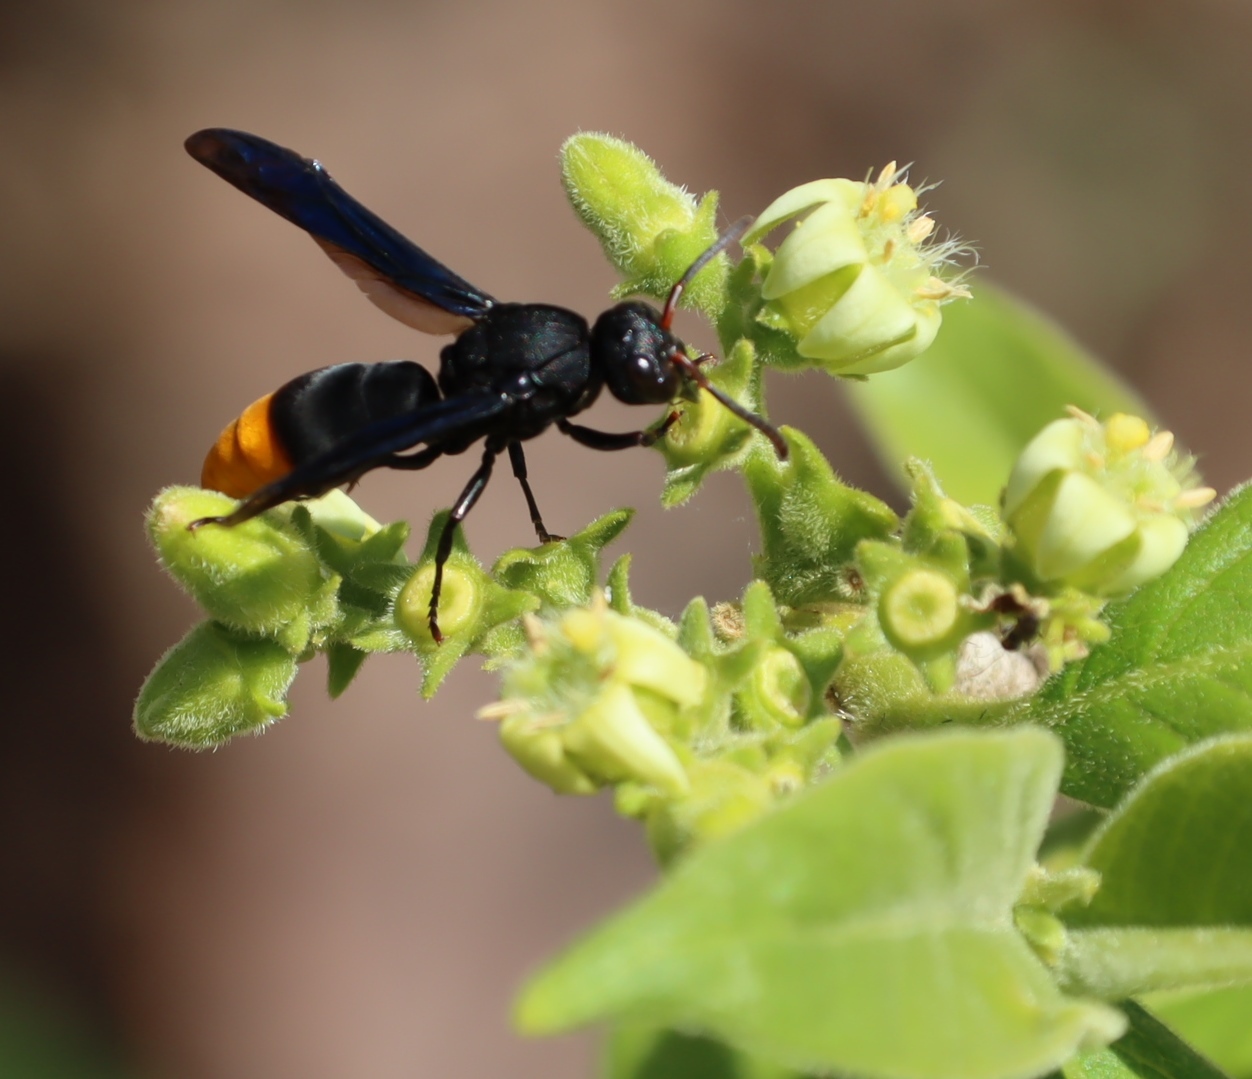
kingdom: Animalia
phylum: Arthropoda
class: Insecta
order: Hymenoptera
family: Eumenidae
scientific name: Eumenidae
